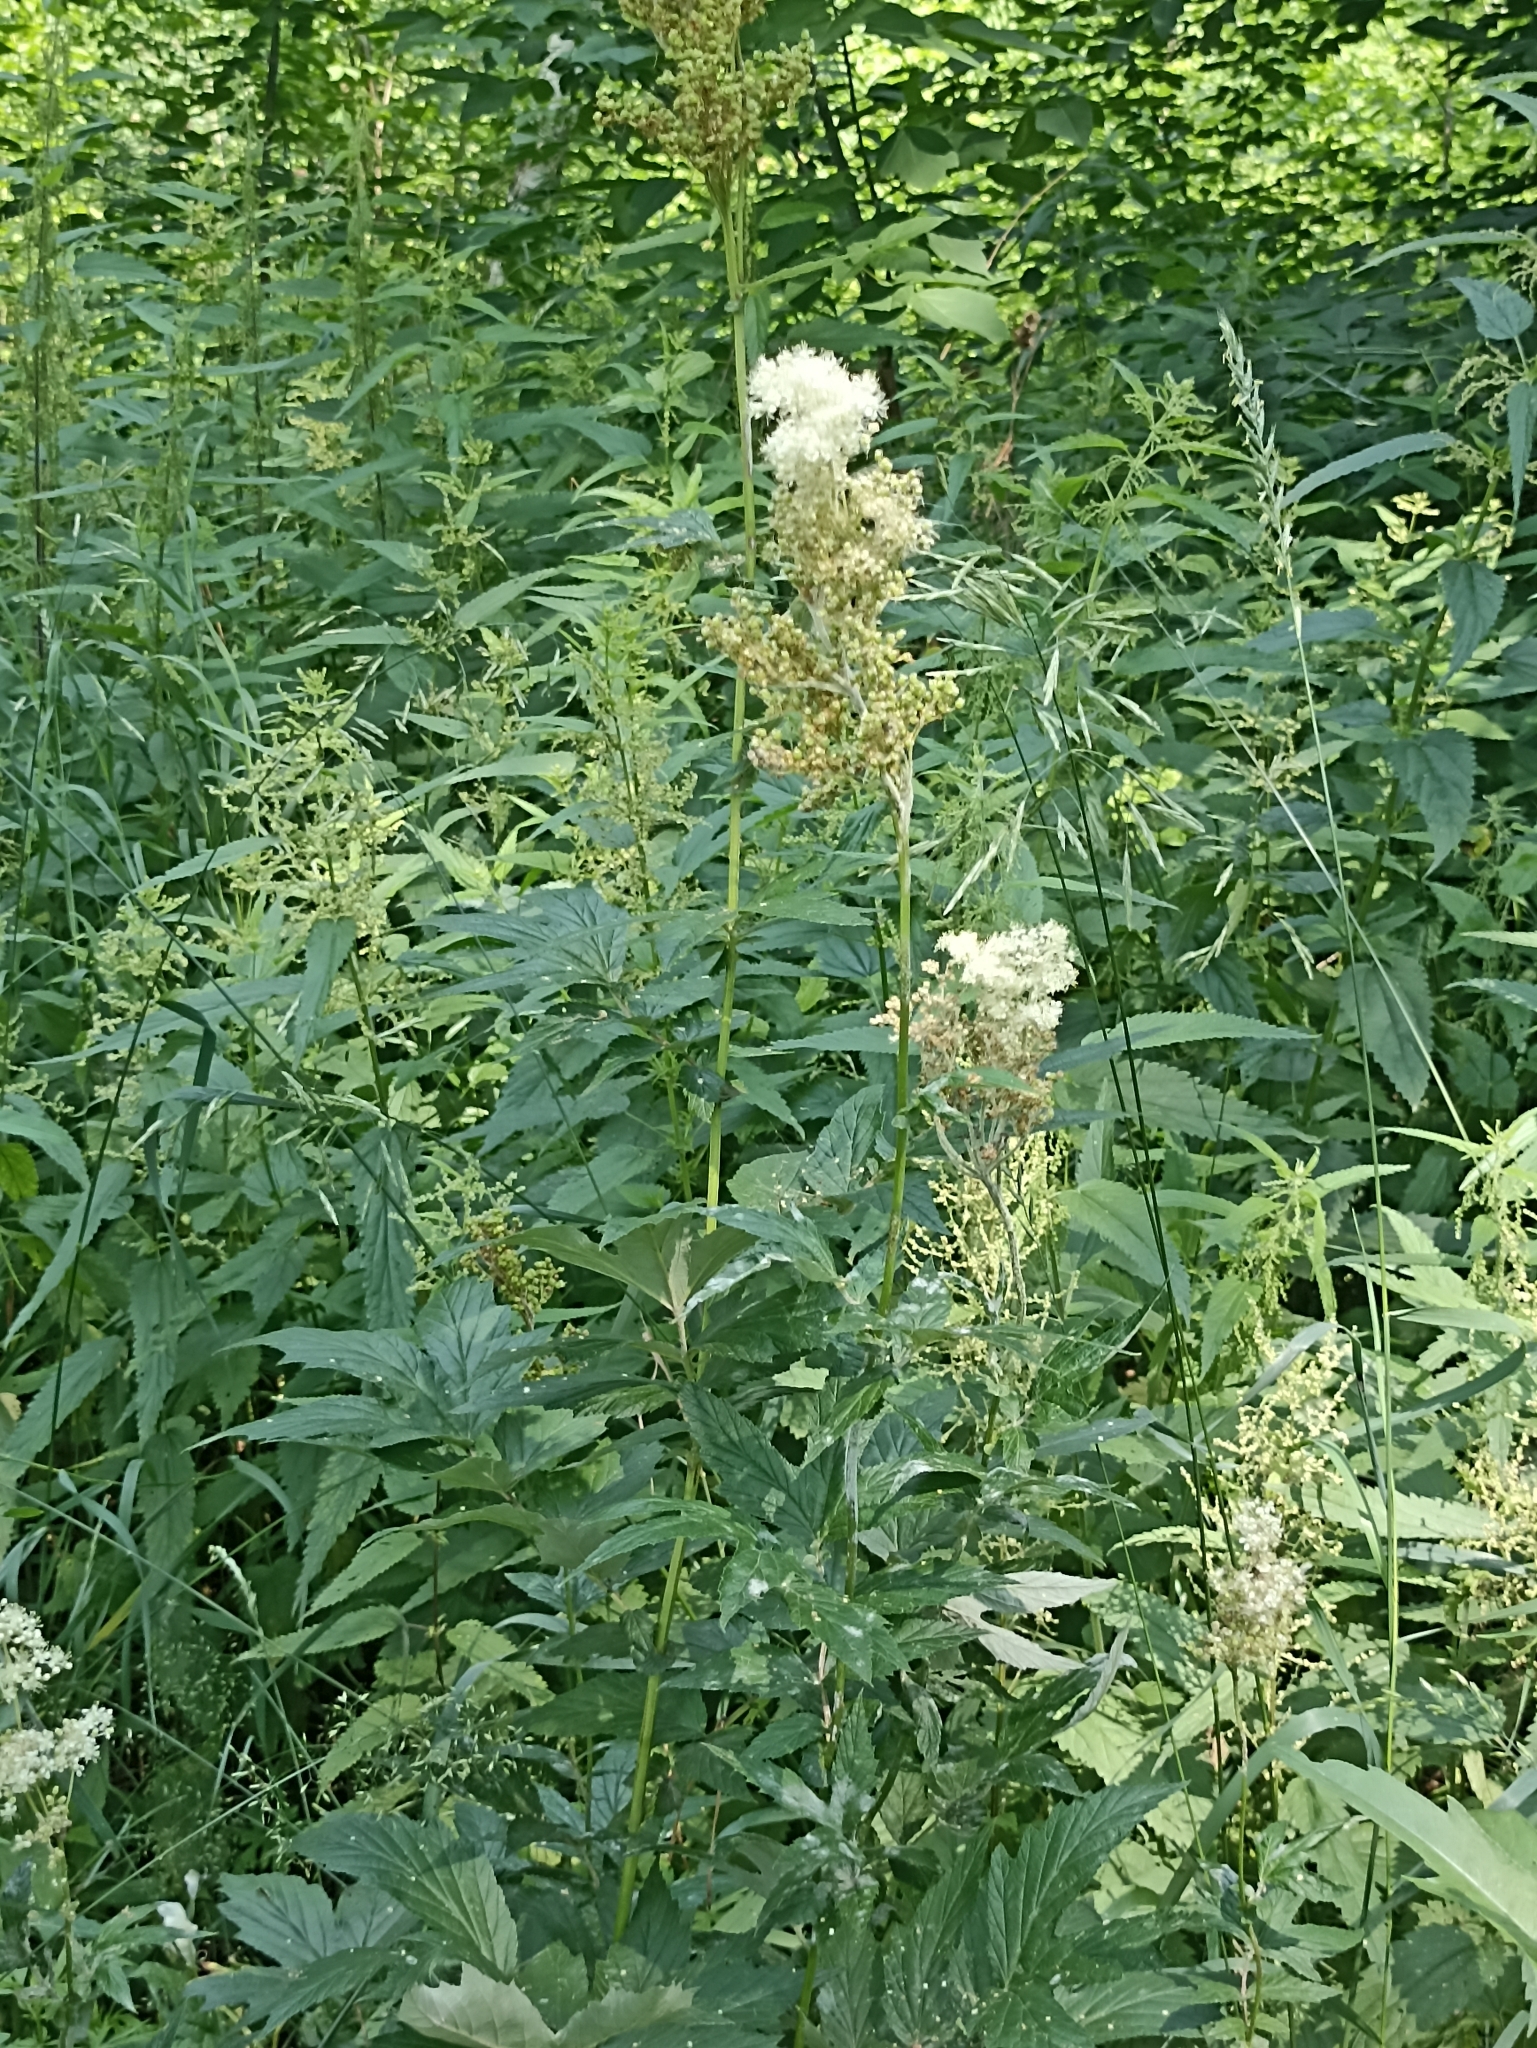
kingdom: Plantae
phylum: Tracheophyta
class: Magnoliopsida
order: Rosales
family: Rosaceae
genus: Filipendula
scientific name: Filipendula ulmaria
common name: Meadowsweet
